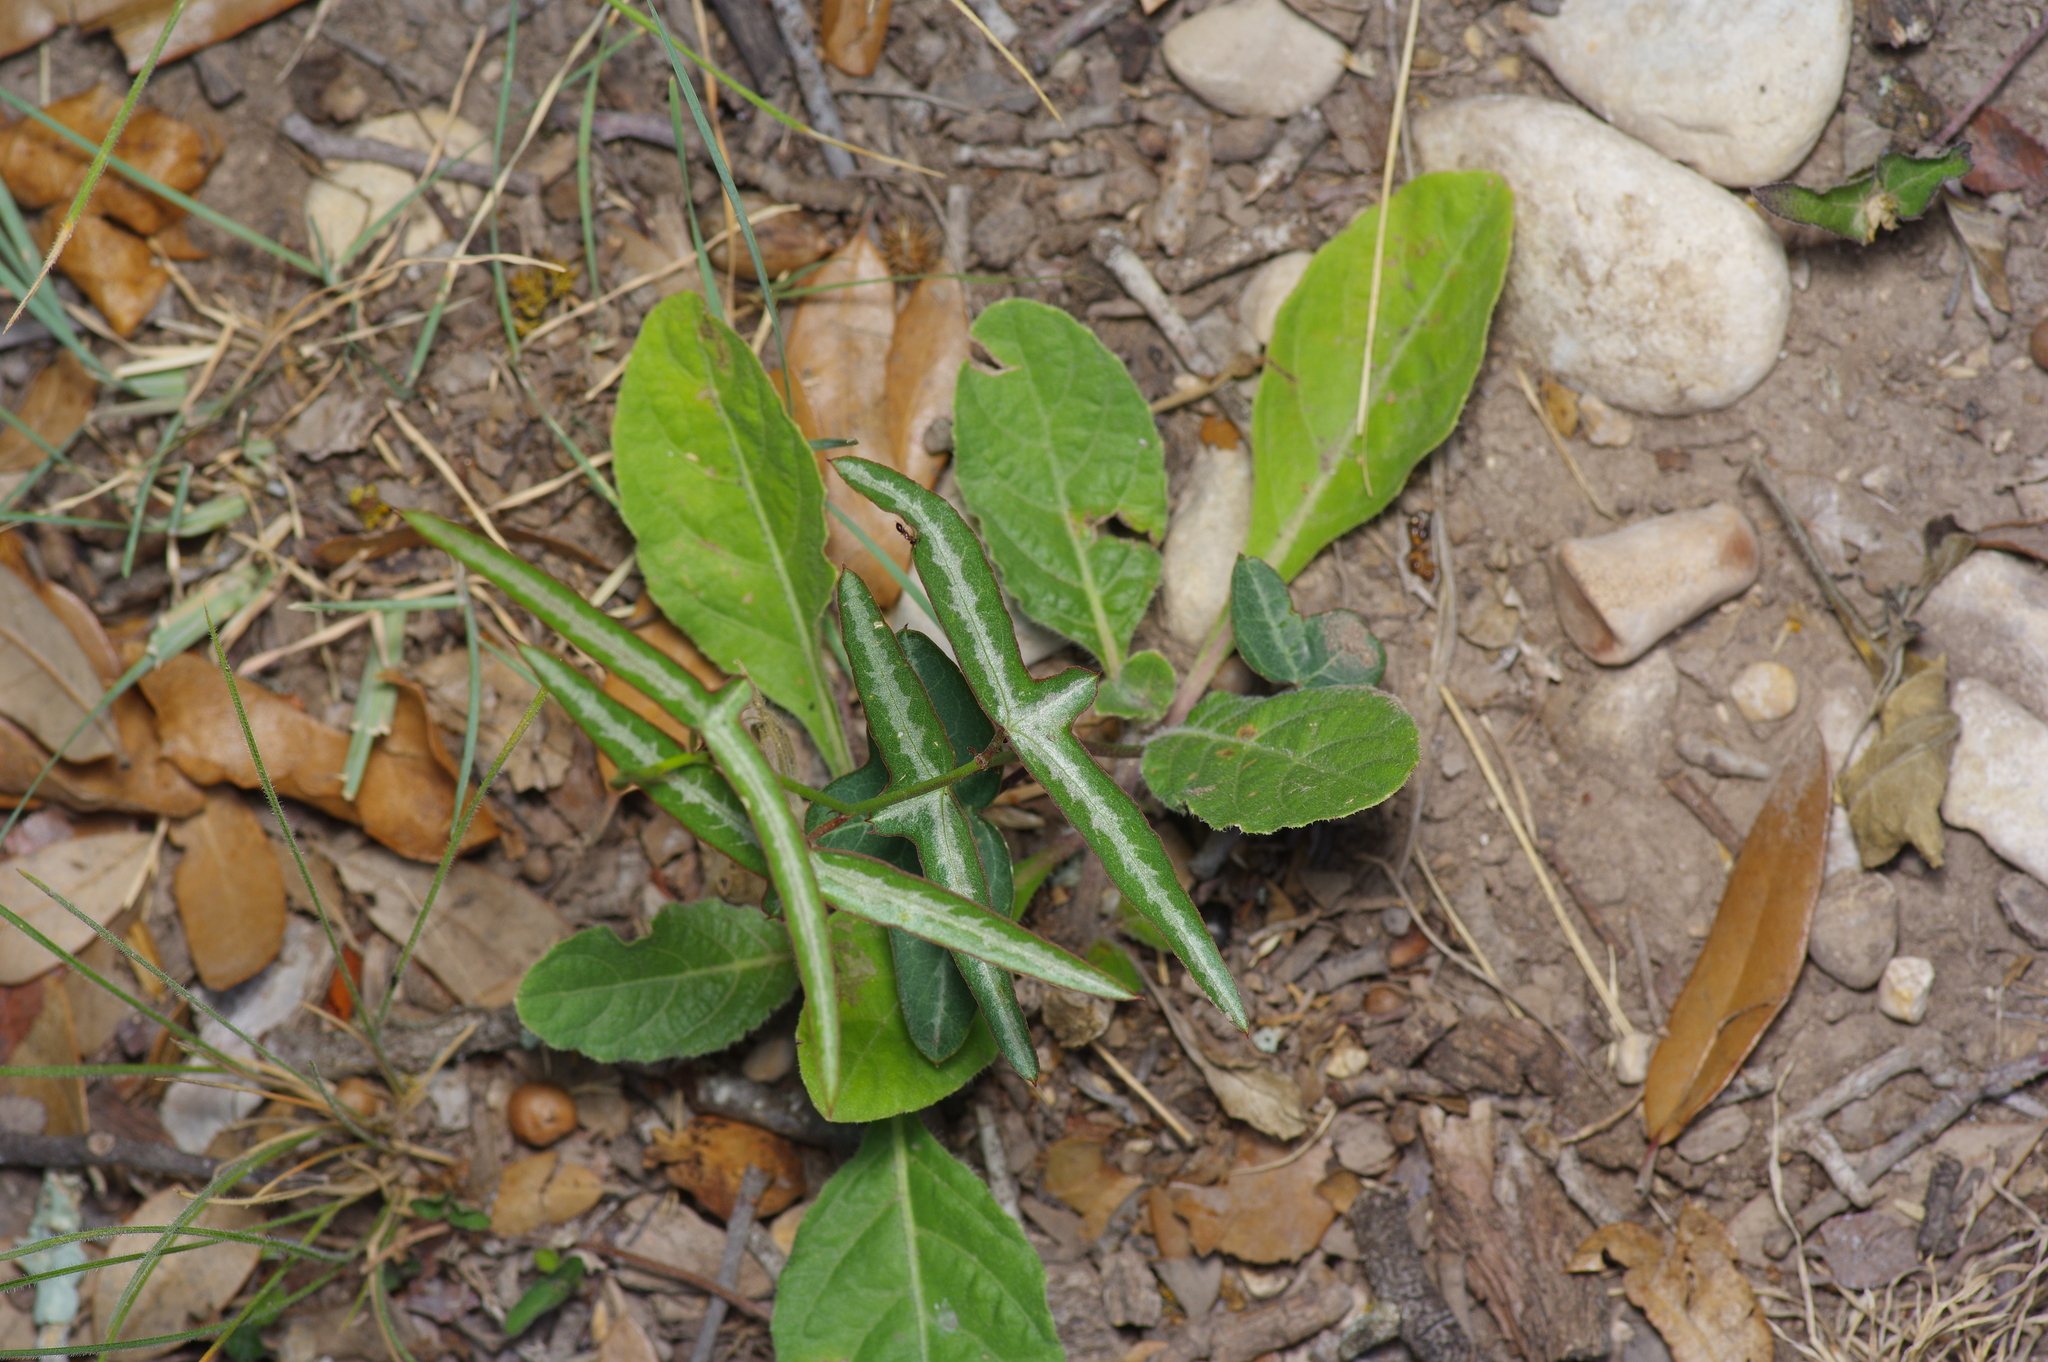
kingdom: Plantae
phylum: Tracheophyta
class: Magnoliopsida
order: Malpighiales
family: Passifloraceae
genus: Passiflora
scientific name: Passiflora tenuiloba
